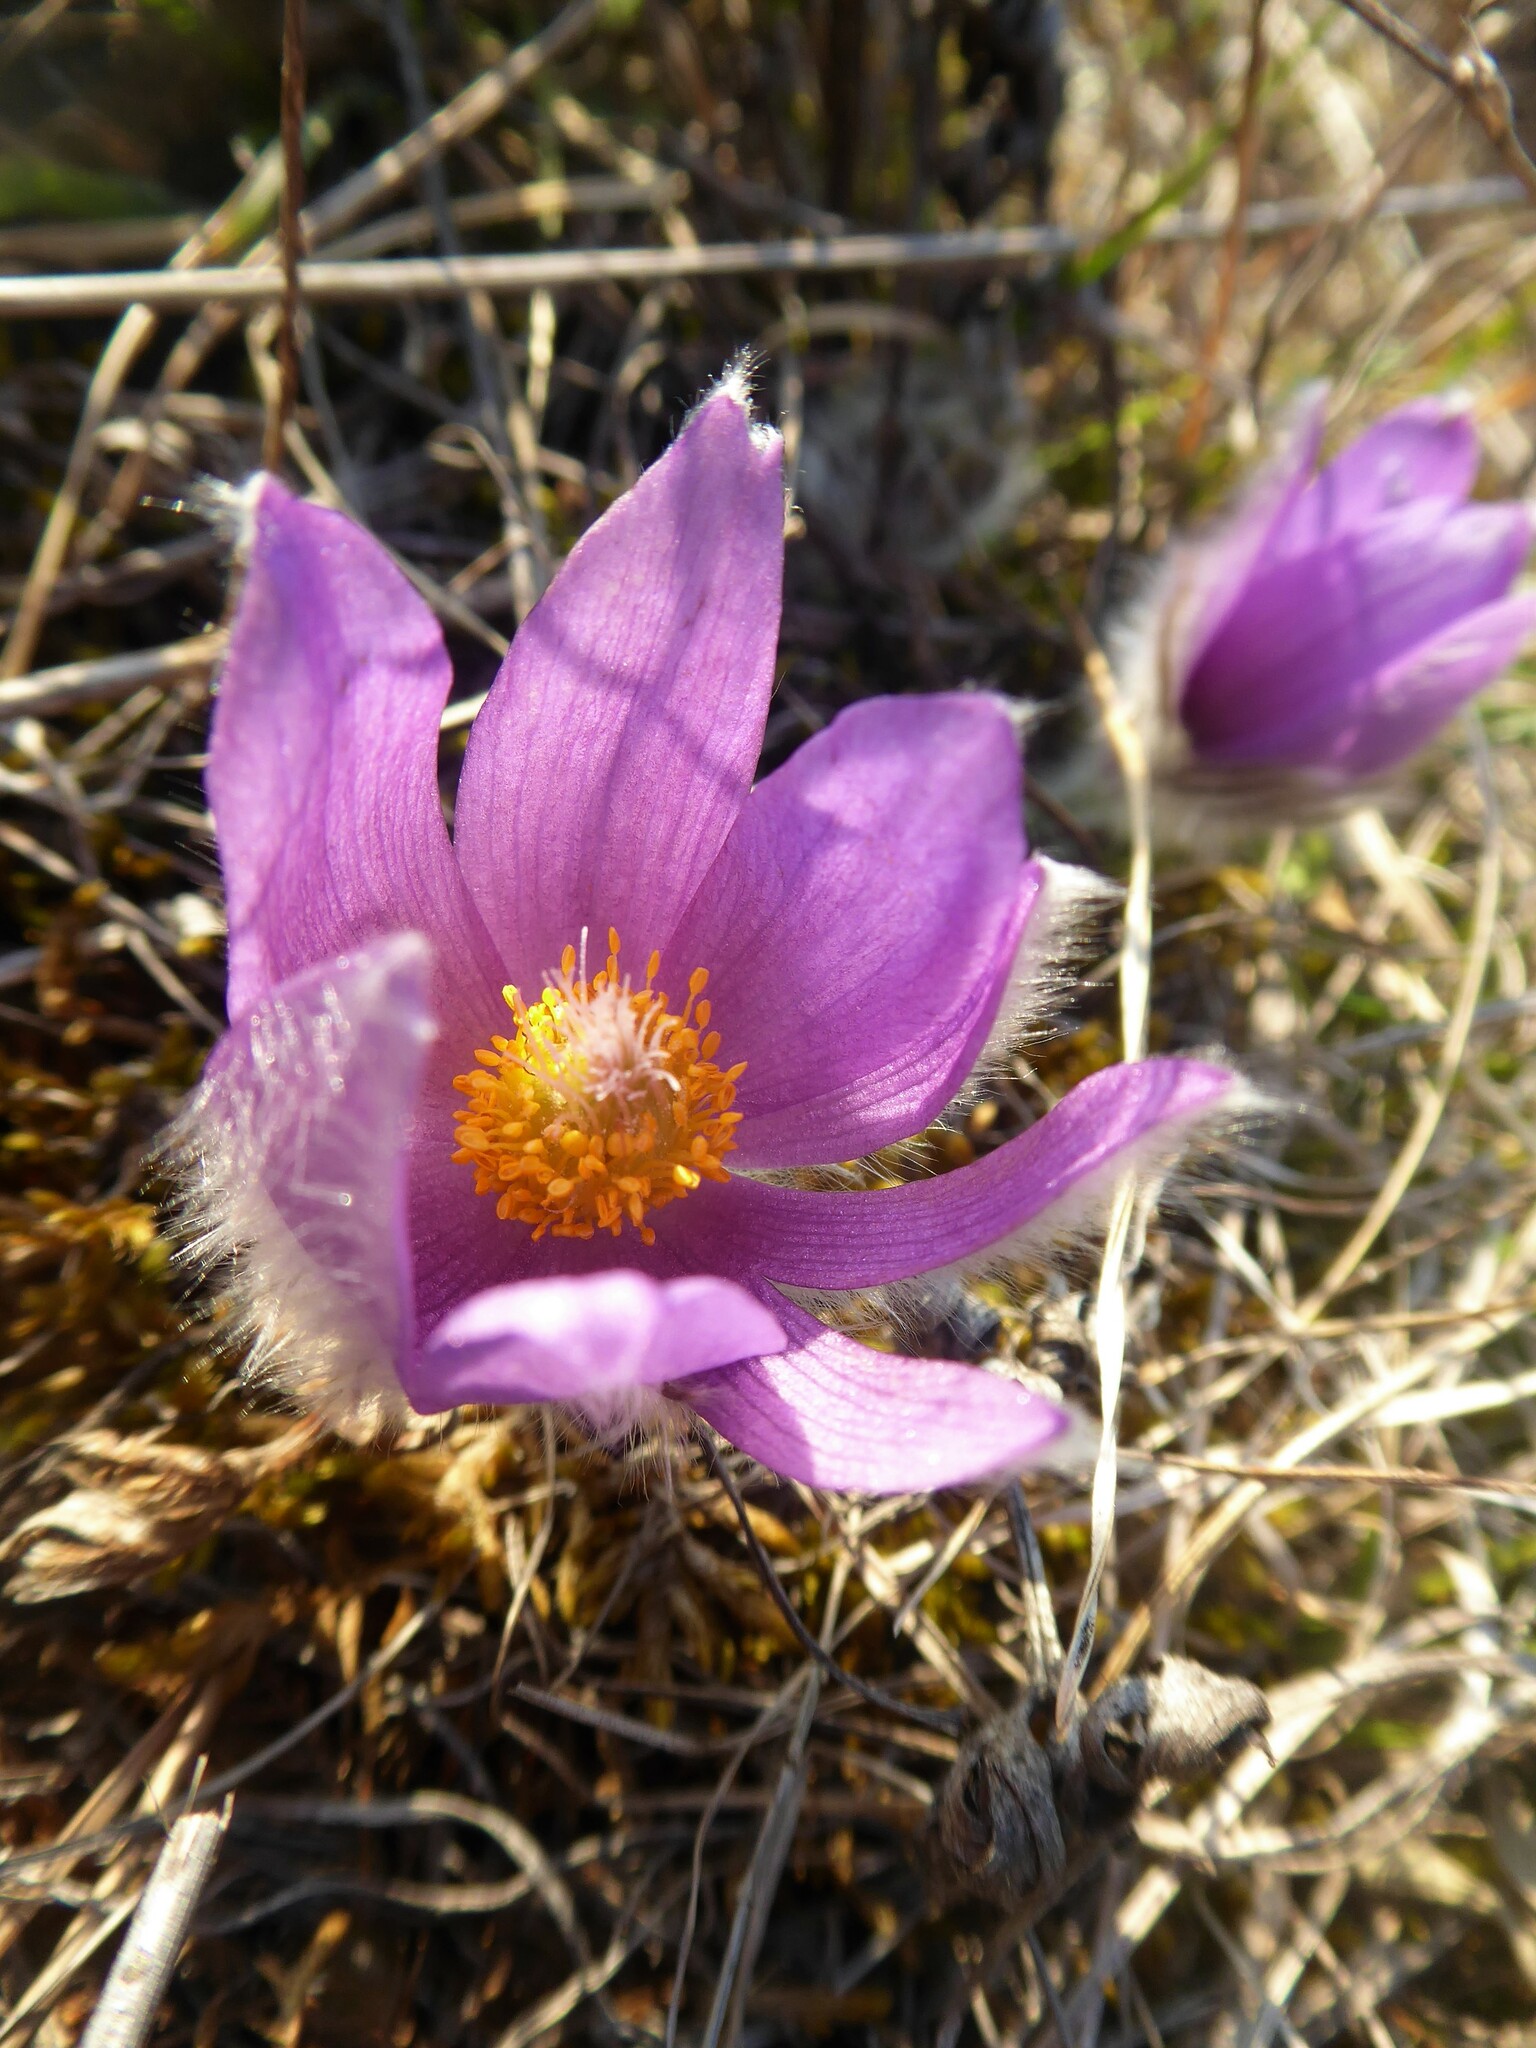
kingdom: Plantae
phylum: Tracheophyta
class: Magnoliopsida
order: Ranunculales
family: Ranunculaceae
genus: Pulsatilla
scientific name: Pulsatilla grandis
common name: Greater pasque flower
